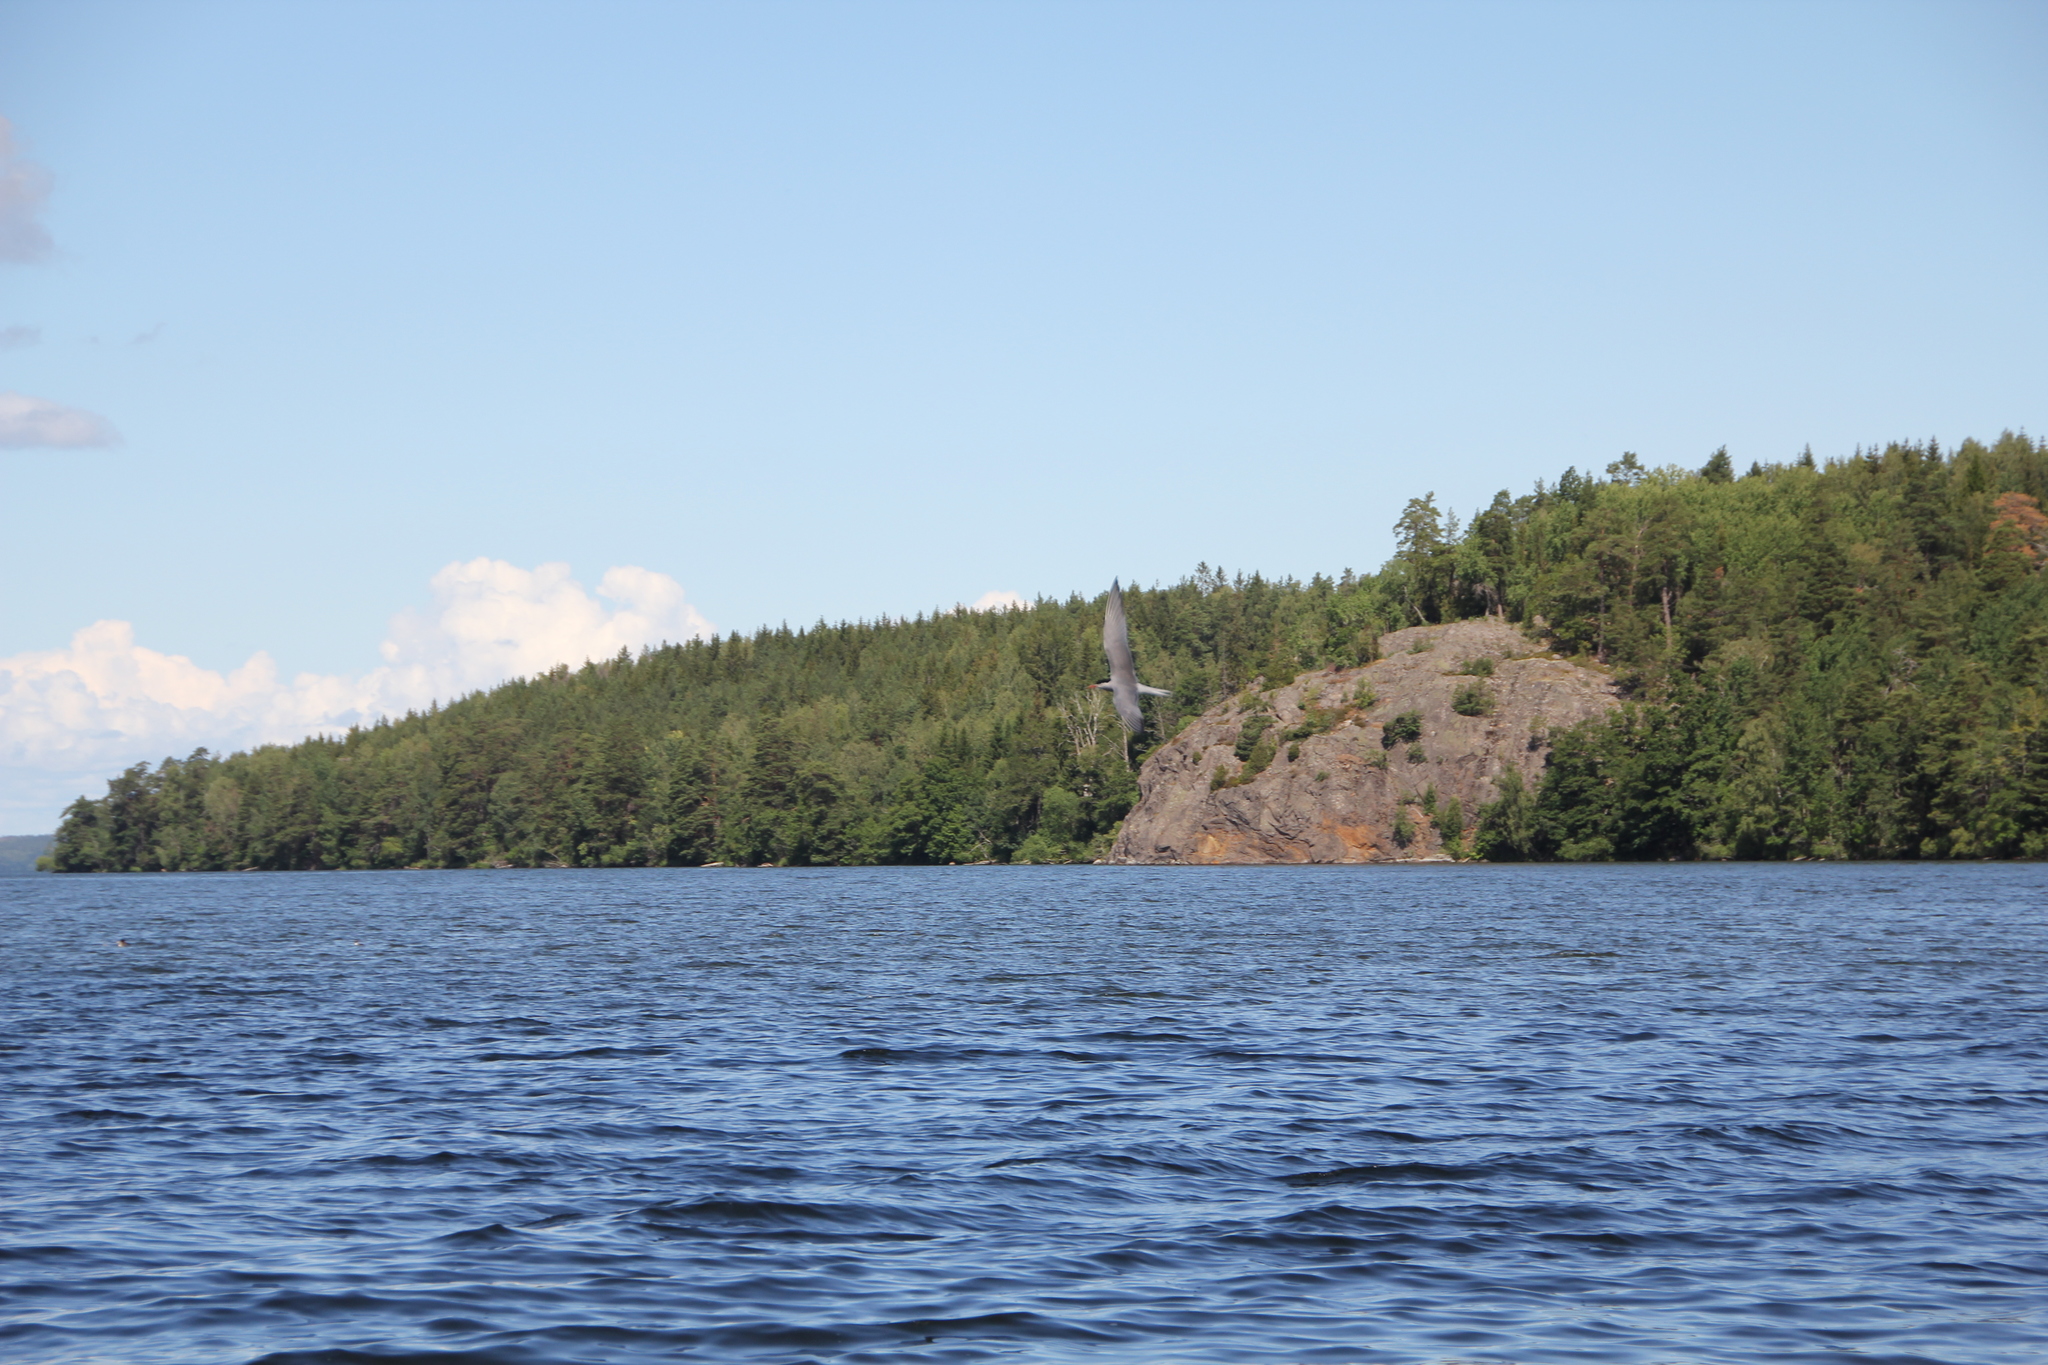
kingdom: Animalia
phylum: Chordata
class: Aves
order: Charadriiformes
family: Laridae
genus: Sterna
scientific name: Sterna hirundo
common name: Common tern
